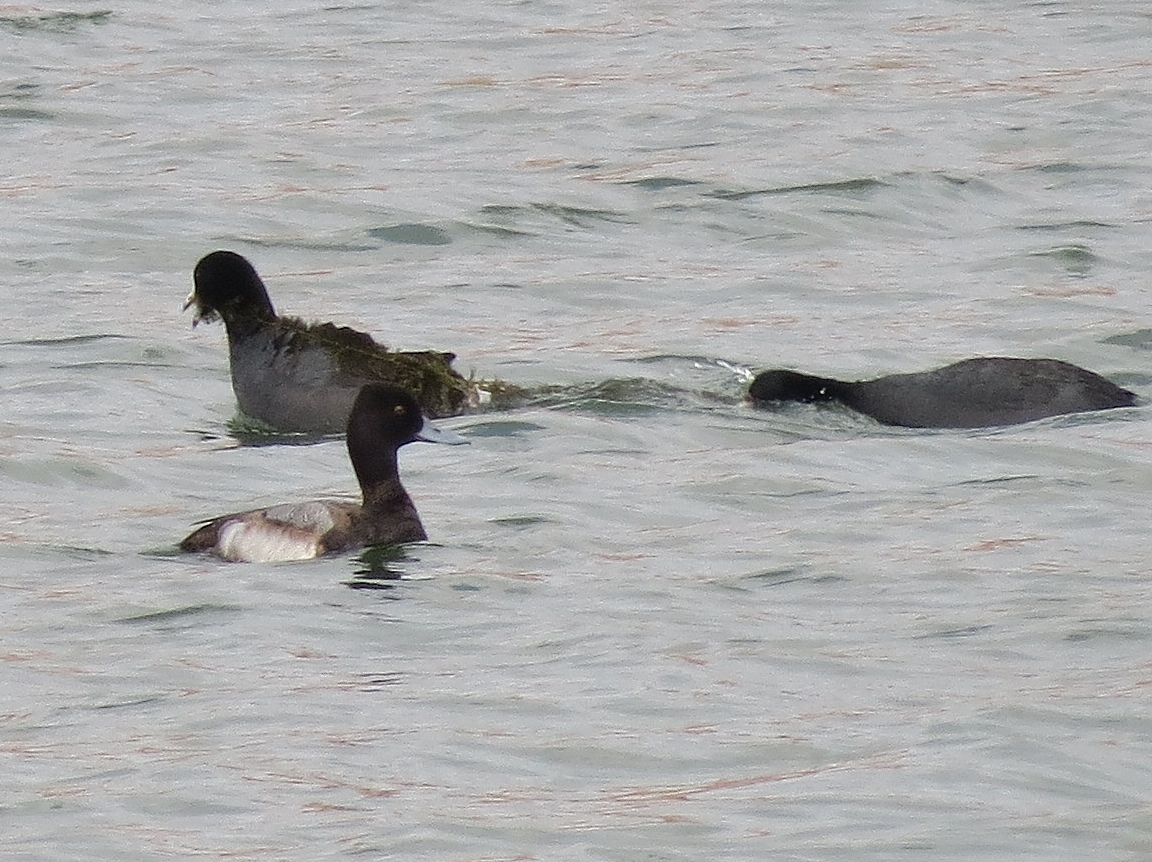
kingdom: Animalia
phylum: Chordata
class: Aves
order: Anseriformes
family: Anatidae
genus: Aythya
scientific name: Aythya affinis
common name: Lesser scaup
